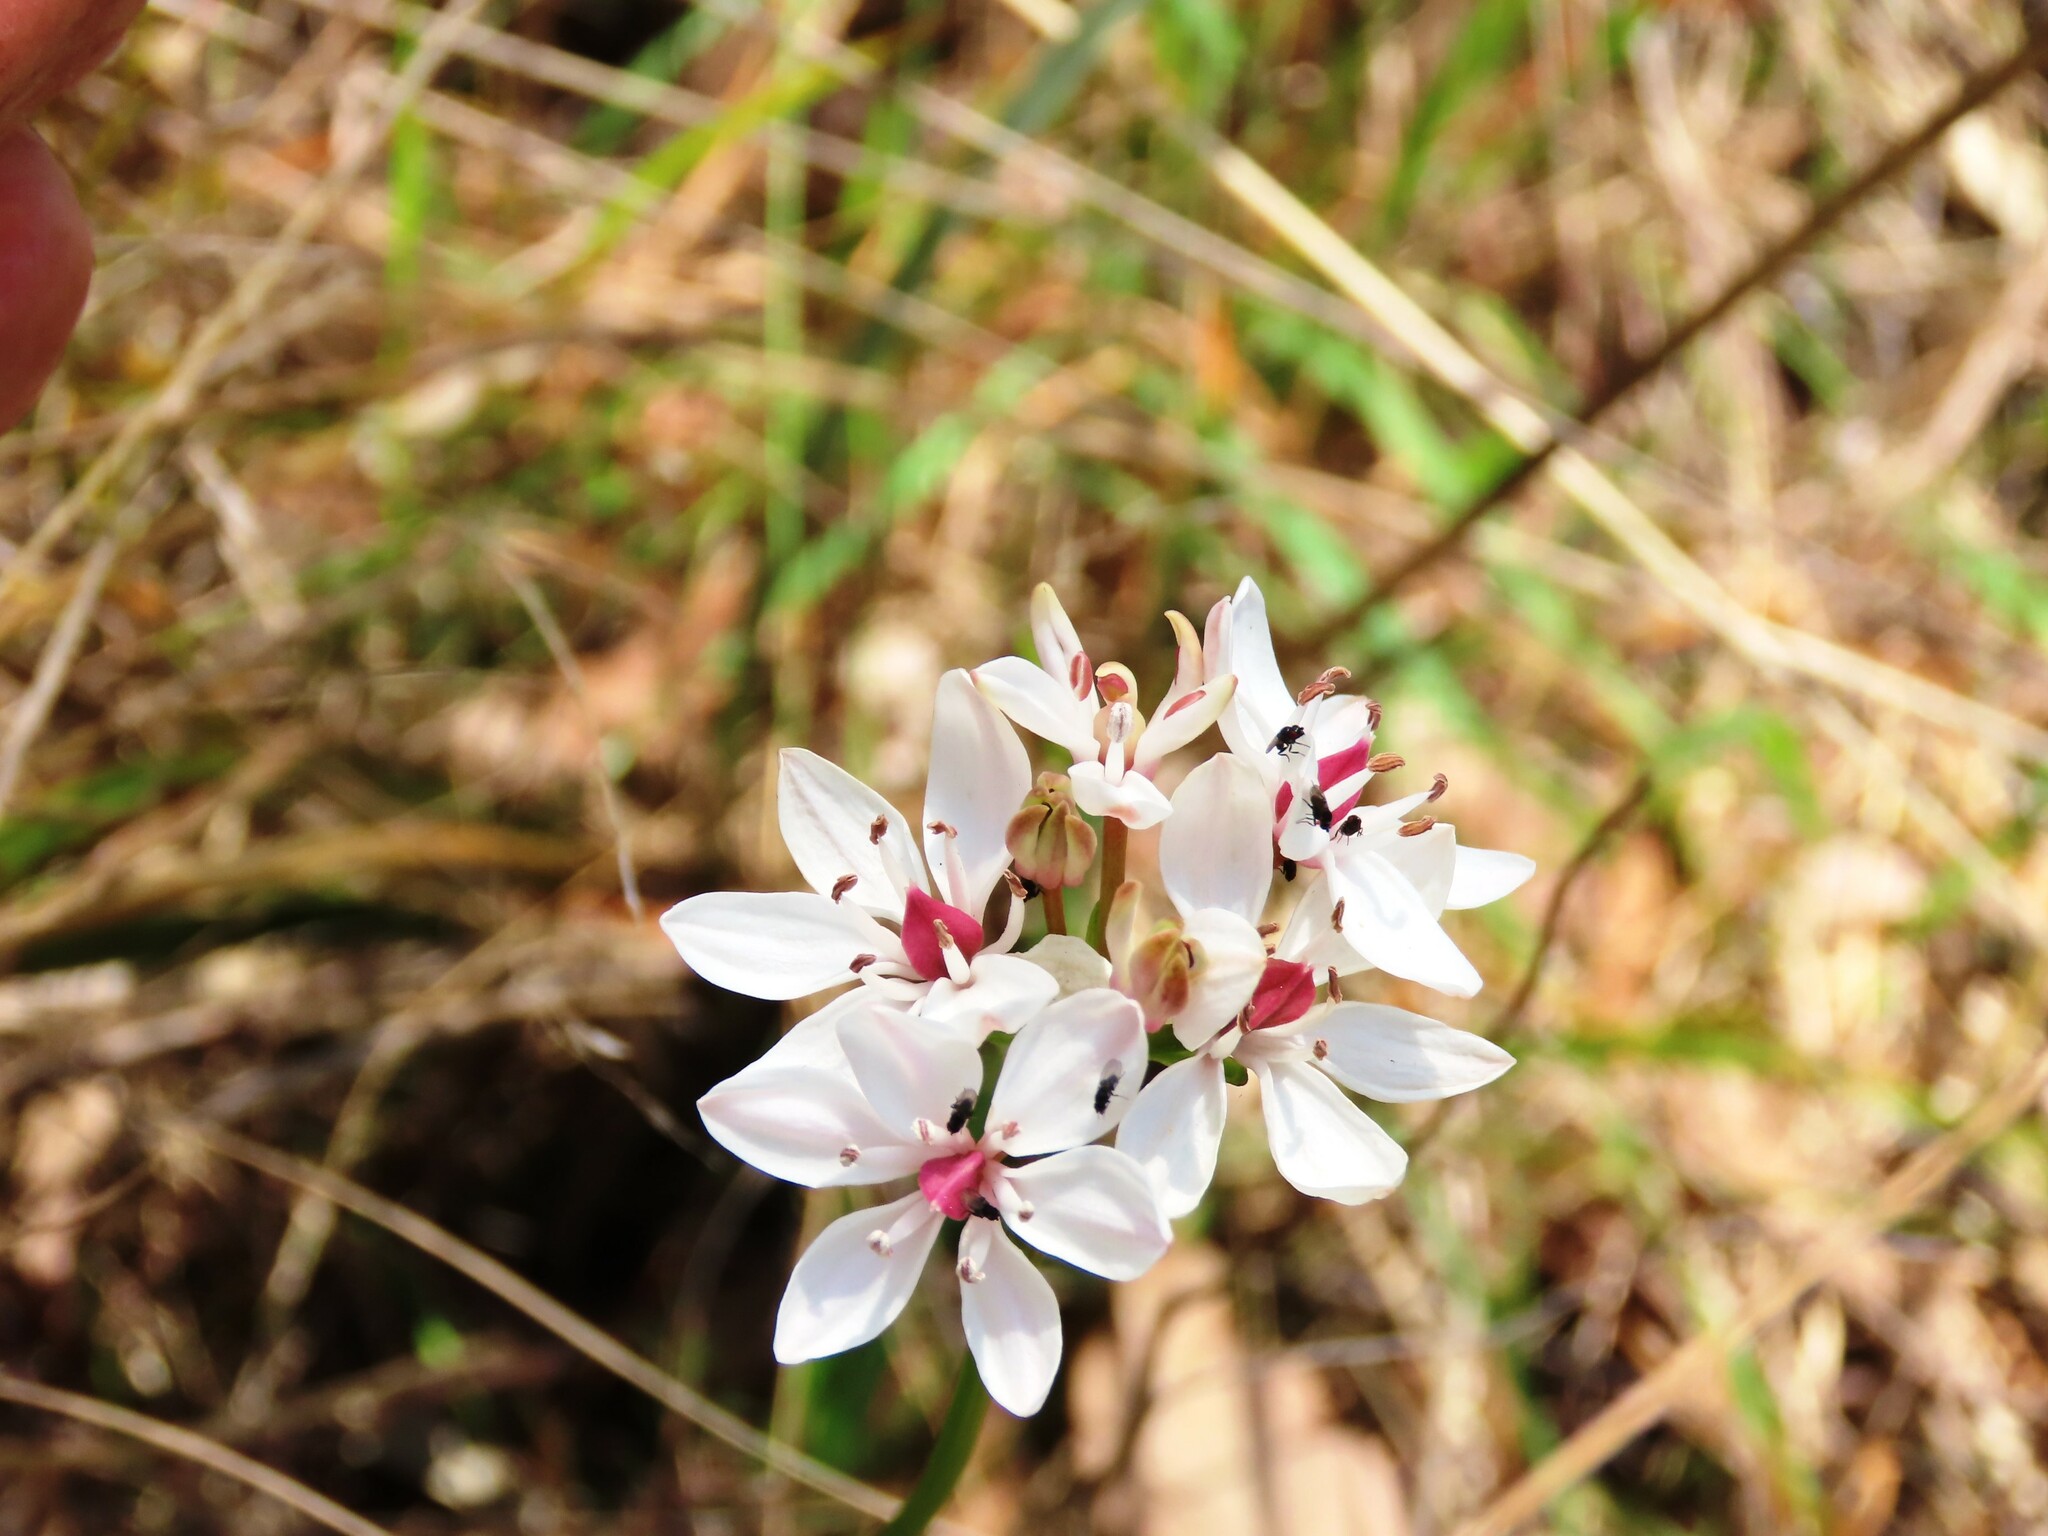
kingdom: Plantae
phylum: Tracheophyta
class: Liliopsida
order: Liliales
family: Colchicaceae
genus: Burchardia
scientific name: Burchardia umbellata
